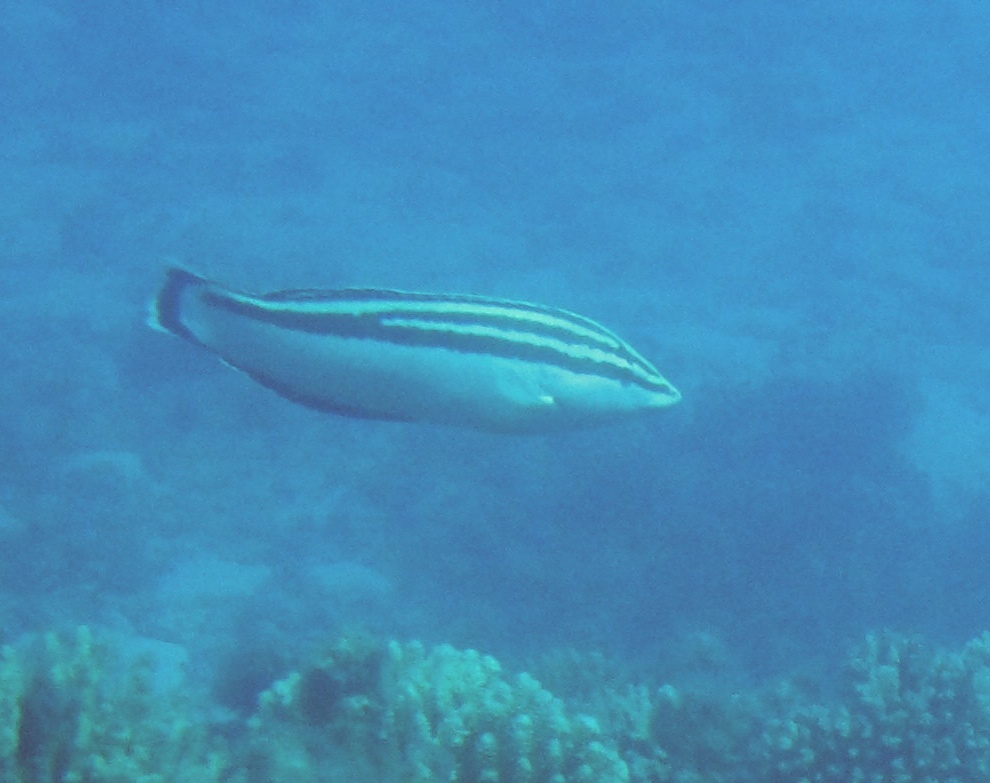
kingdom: Animalia
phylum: Chordata
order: Perciformes
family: Labridae
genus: Coris
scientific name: Coris flavovittata
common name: Yellowstripe coris
